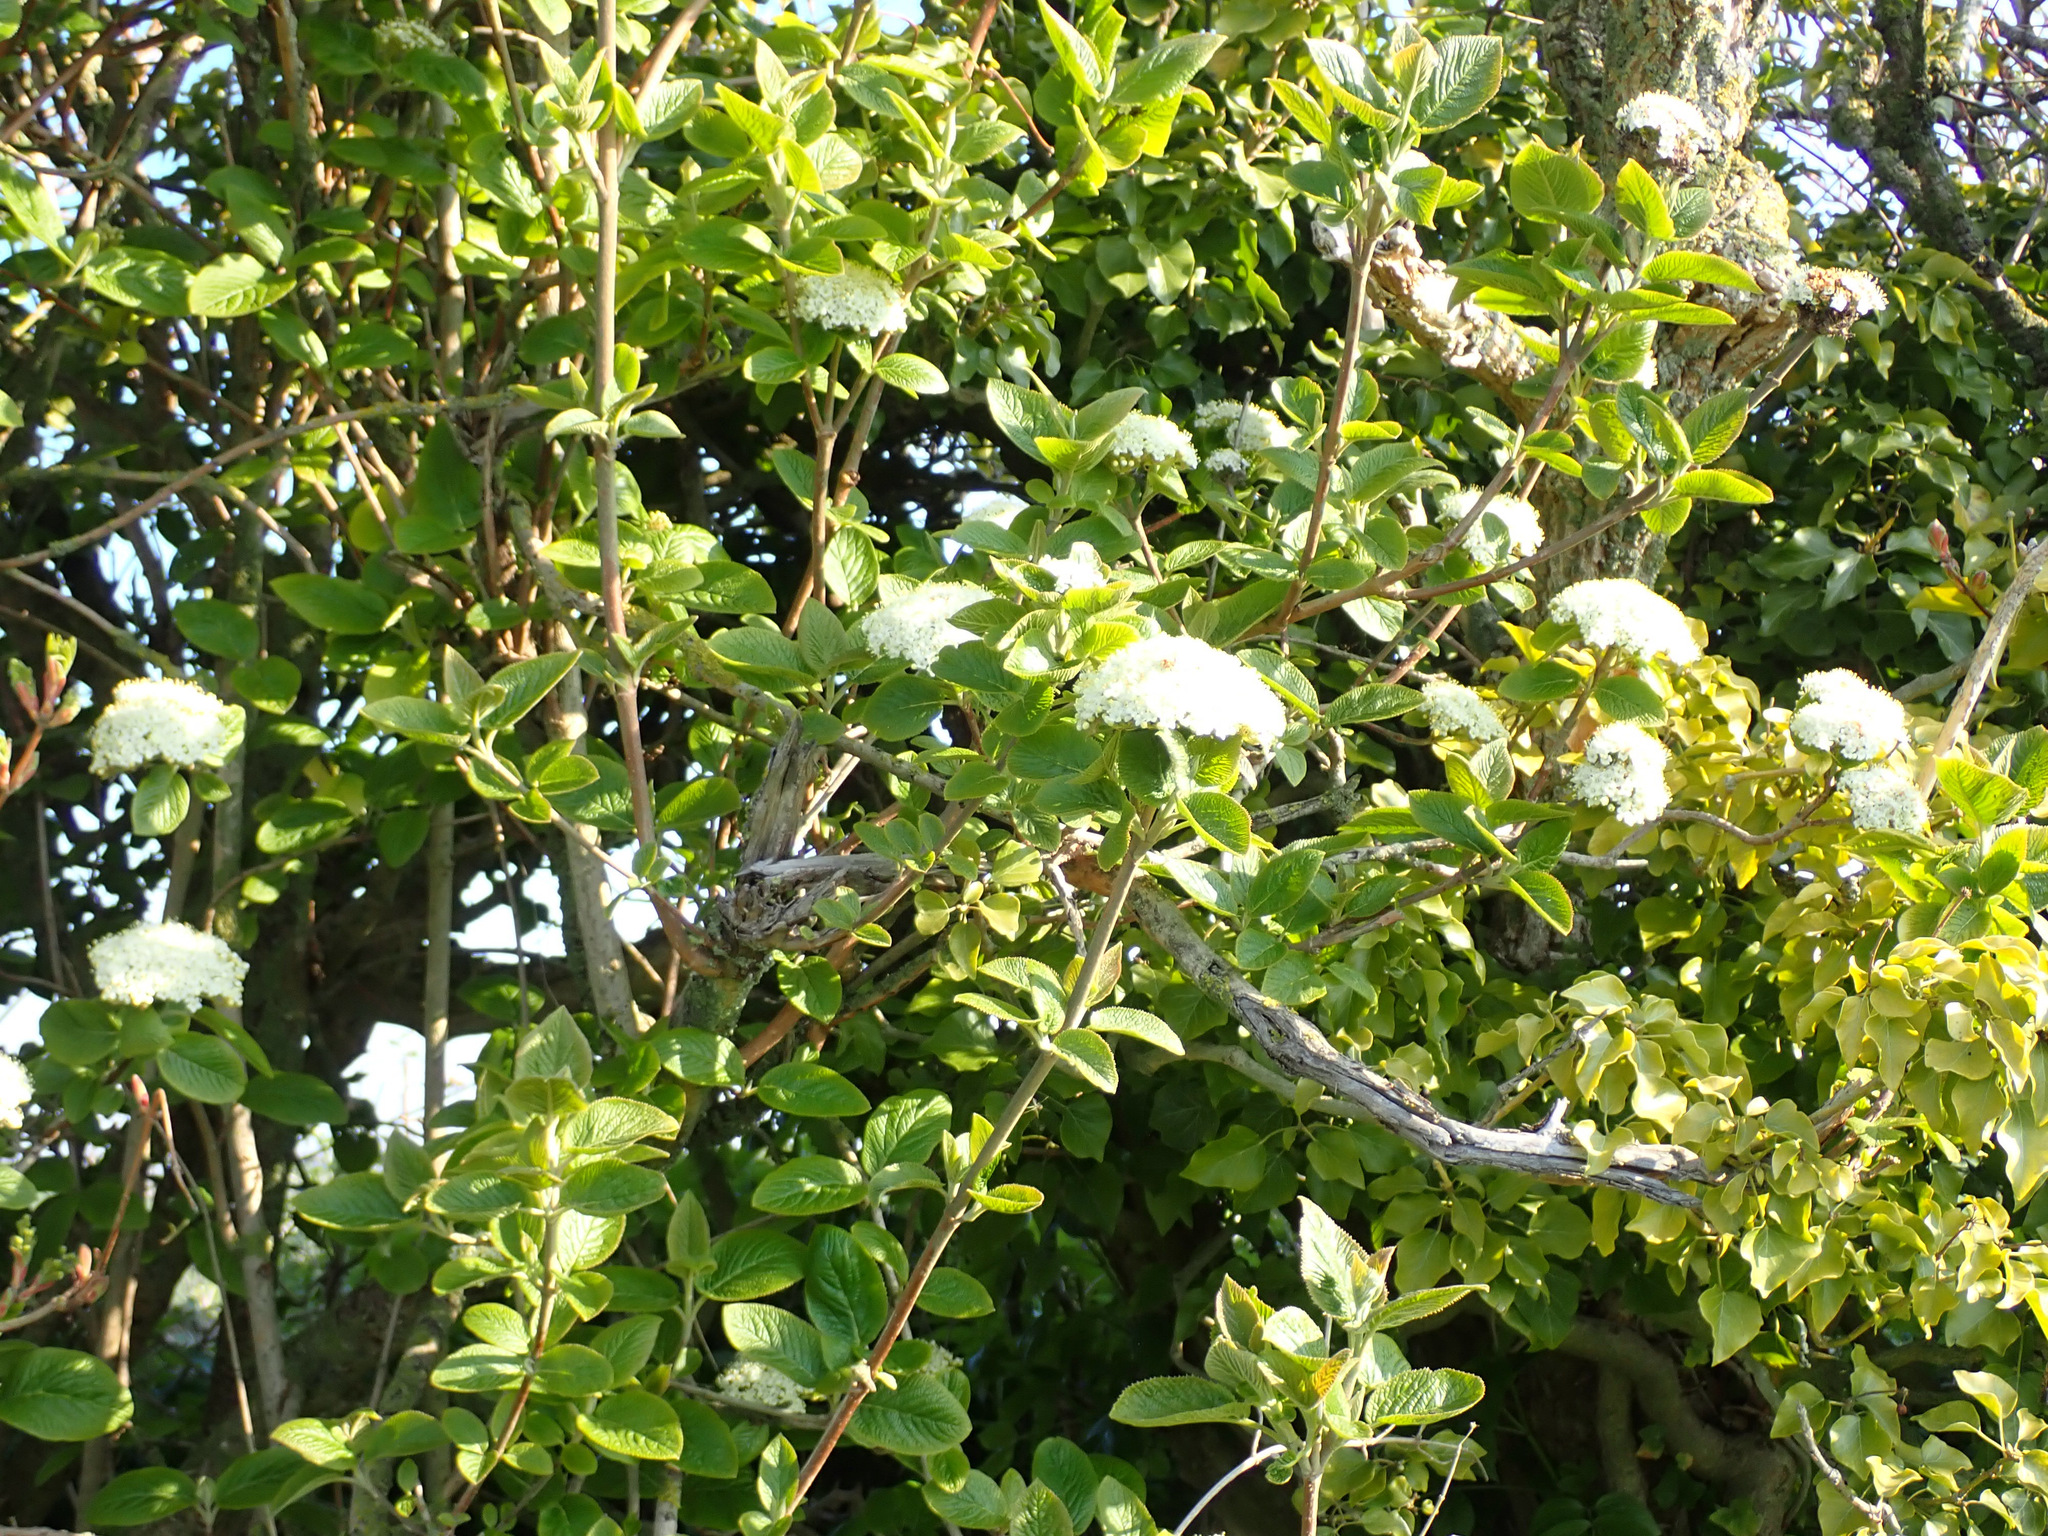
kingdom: Plantae
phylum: Tracheophyta
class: Magnoliopsida
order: Dipsacales
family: Viburnaceae
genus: Viburnum
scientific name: Viburnum lantana
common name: Wayfaring tree
